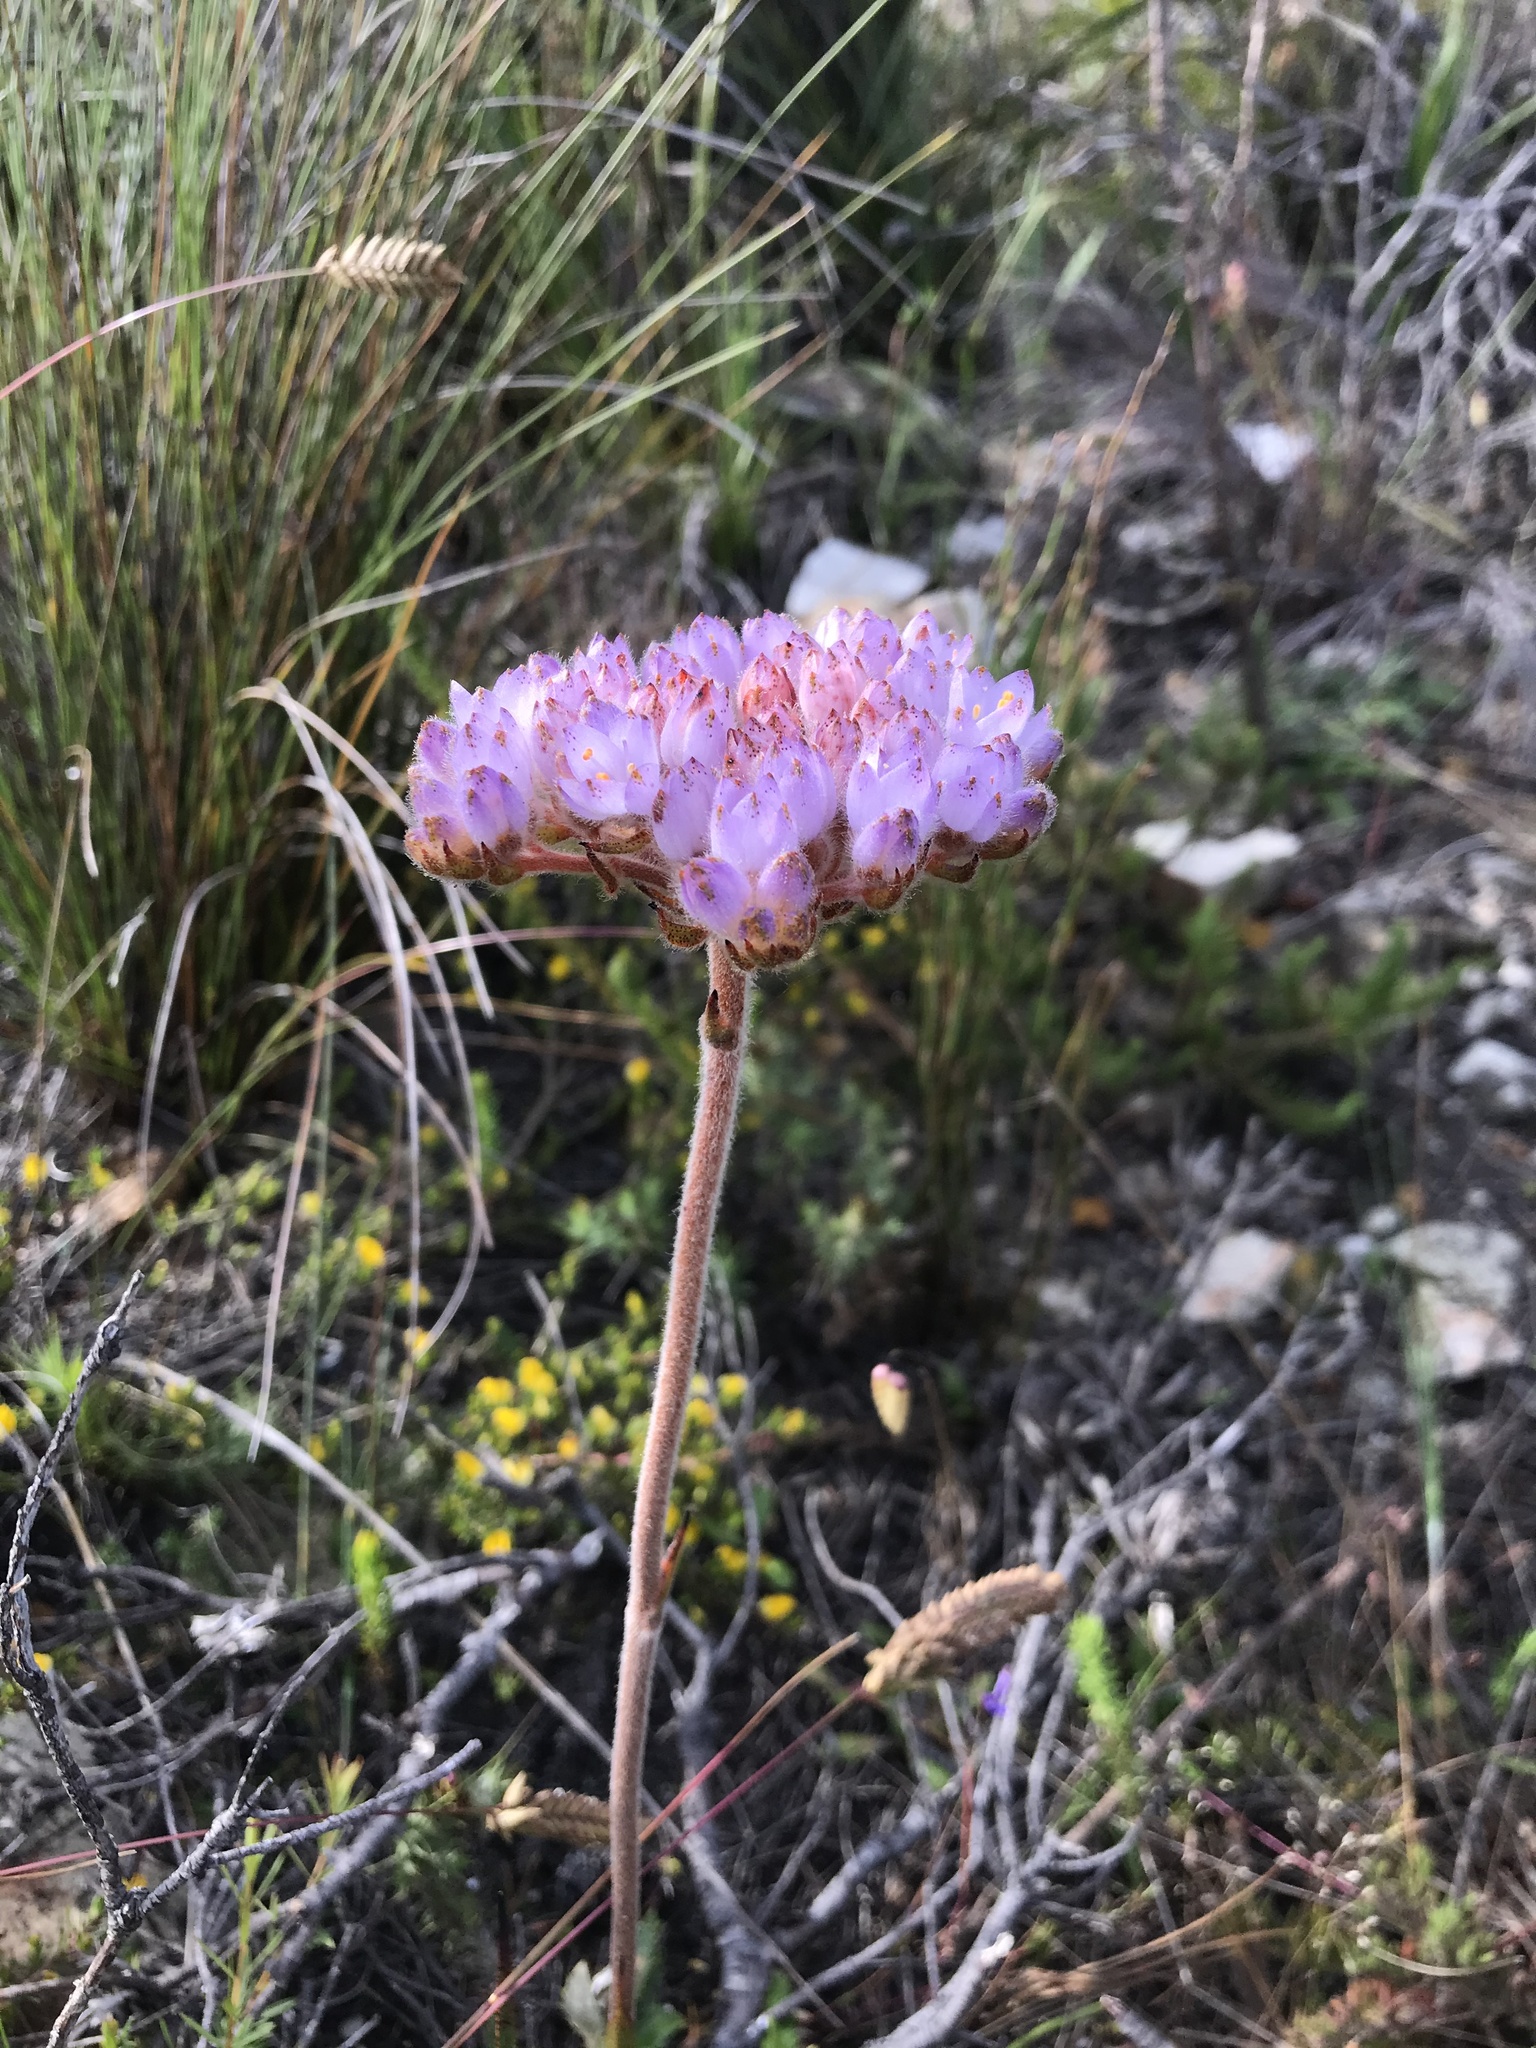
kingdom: Plantae
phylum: Tracheophyta
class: Liliopsida
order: Commelinales
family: Haemodoraceae
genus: Dilatris
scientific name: Dilatris pillansii
